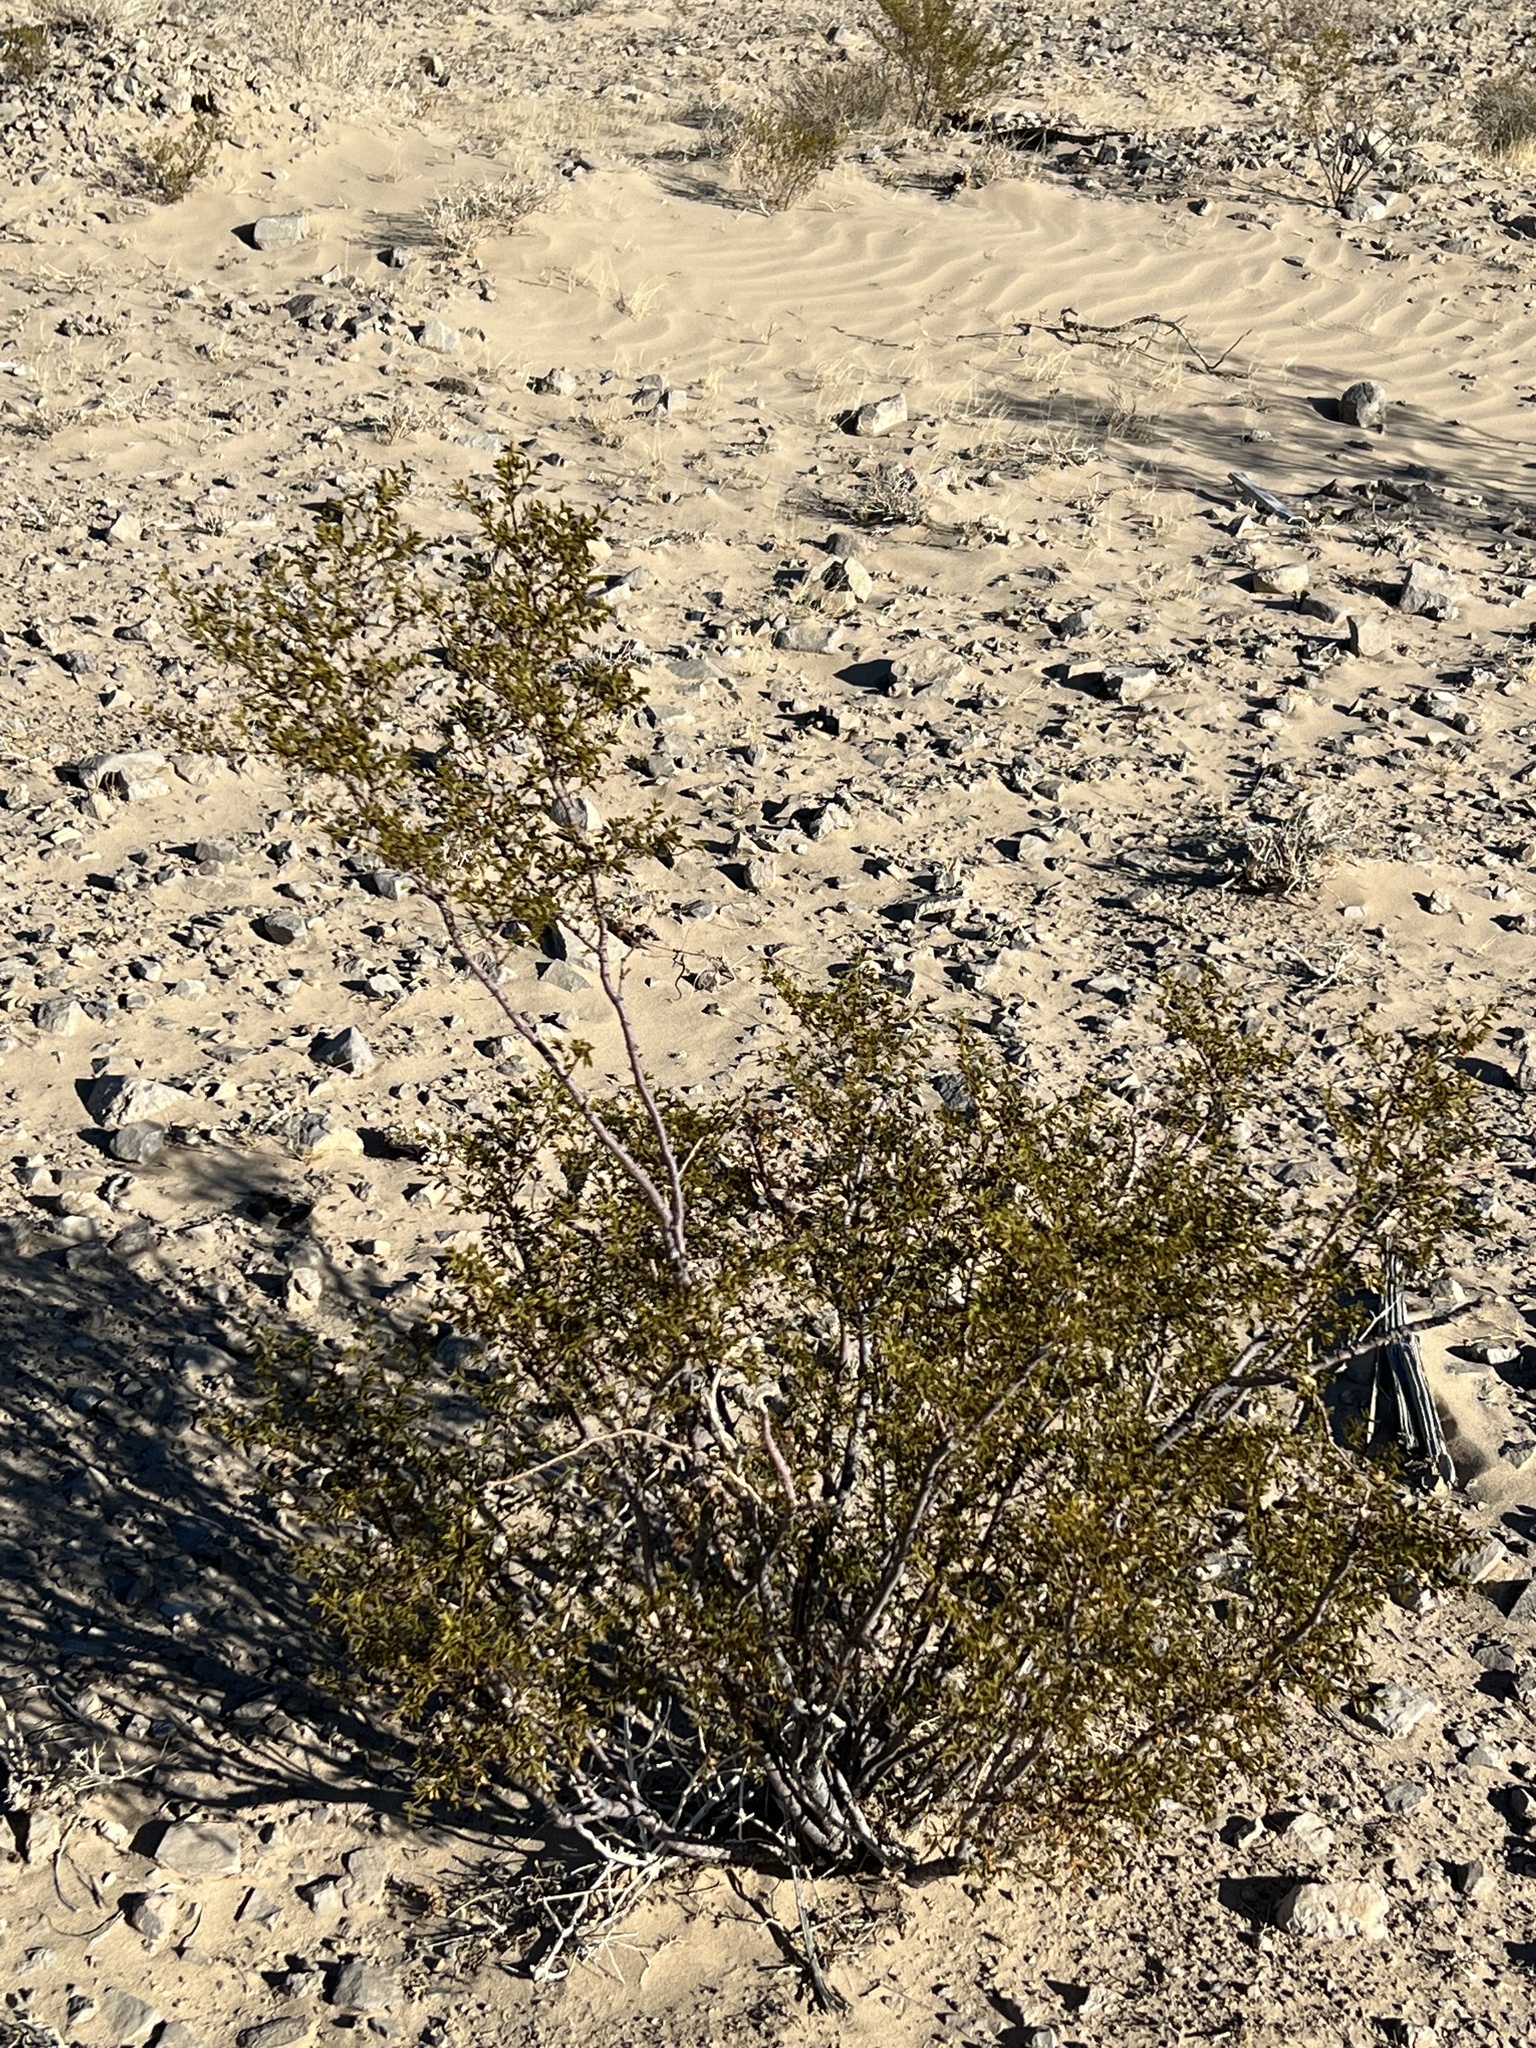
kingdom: Plantae
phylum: Tracheophyta
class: Magnoliopsida
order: Zygophyllales
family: Zygophyllaceae
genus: Larrea
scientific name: Larrea tridentata
